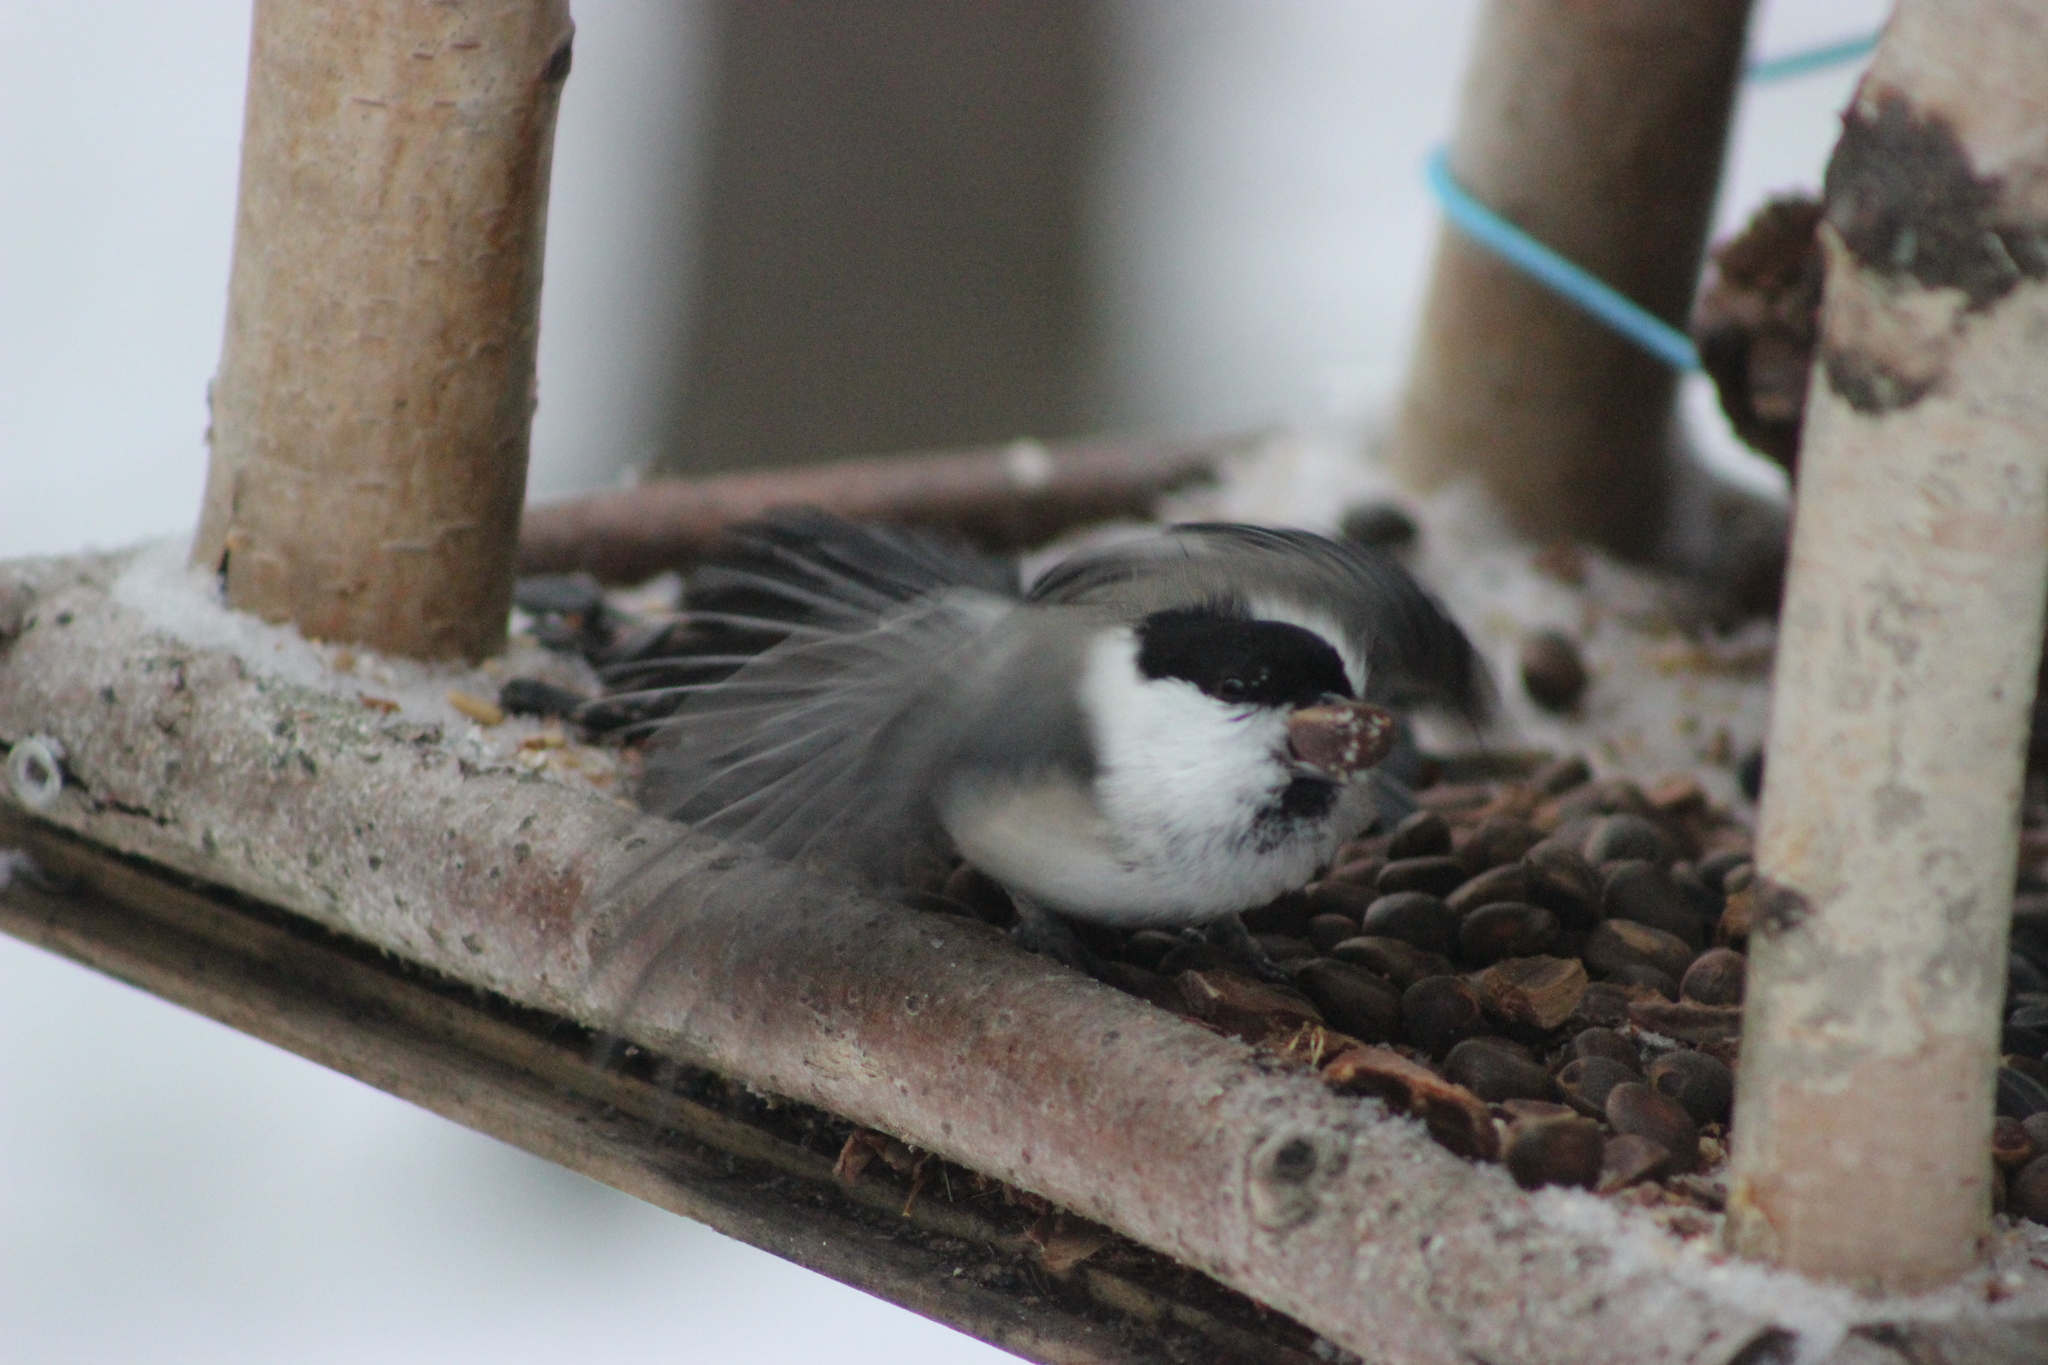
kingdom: Animalia
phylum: Chordata
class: Aves
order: Passeriformes
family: Paridae
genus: Poecile
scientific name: Poecile montanus
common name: Willow tit
